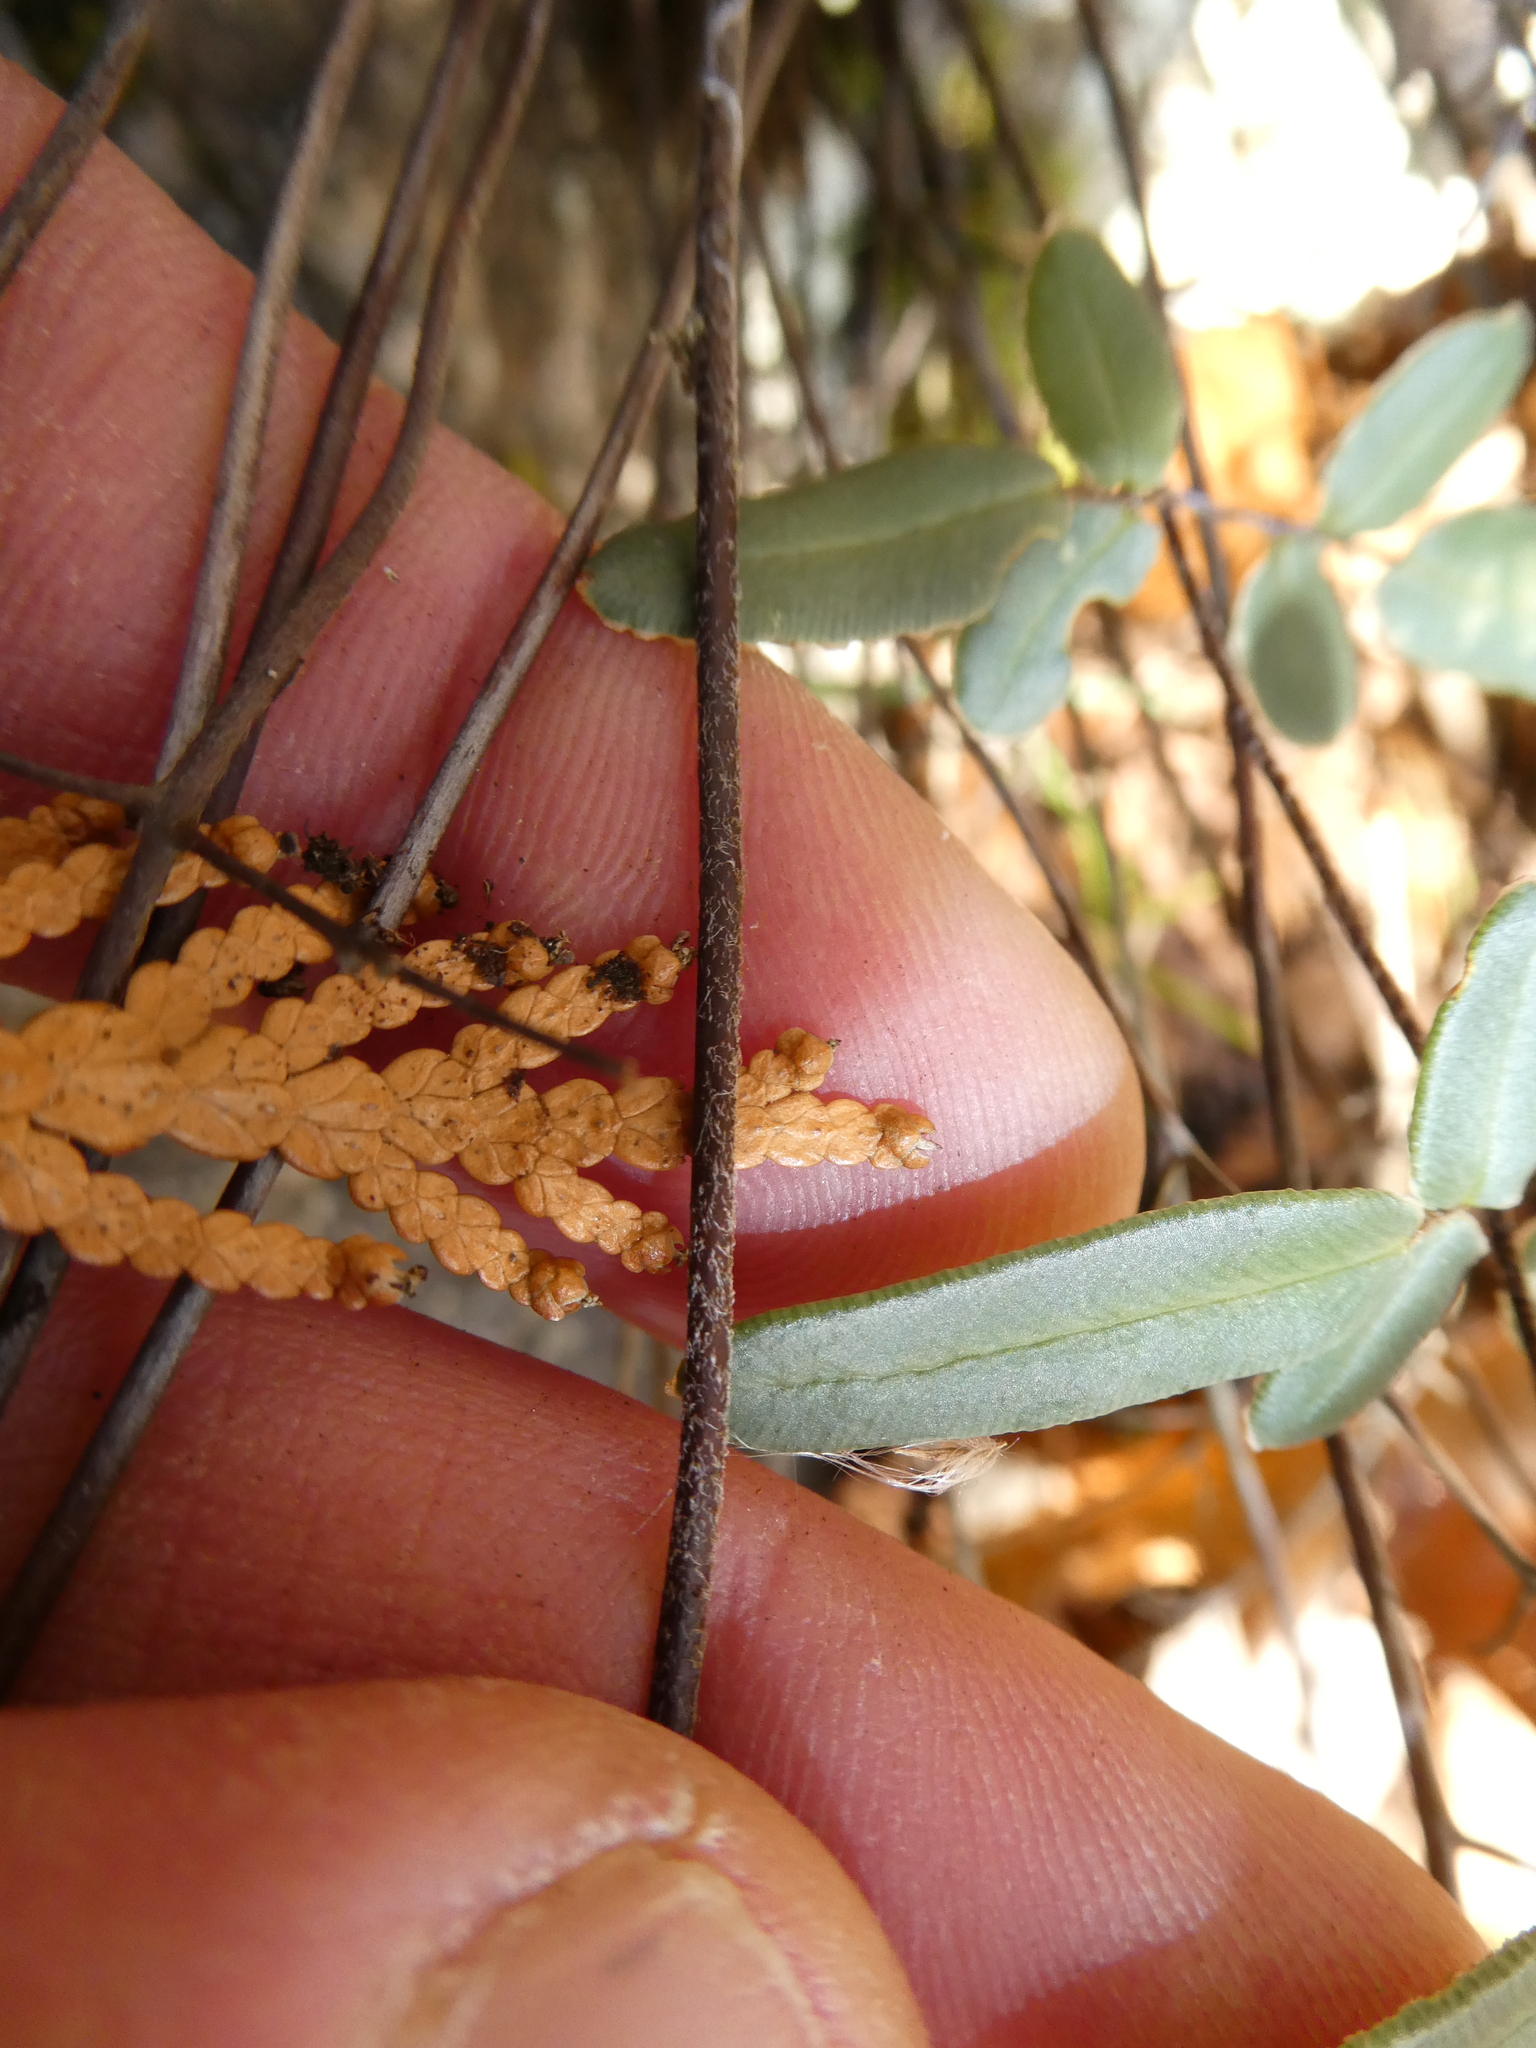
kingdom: Plantae
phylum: Tracheophyta
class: Polypodiopsida
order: Polypodiales
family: Pteridaceae
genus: Pellaea
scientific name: Pellaea atropurpurea
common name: Hairy cliffbrake
